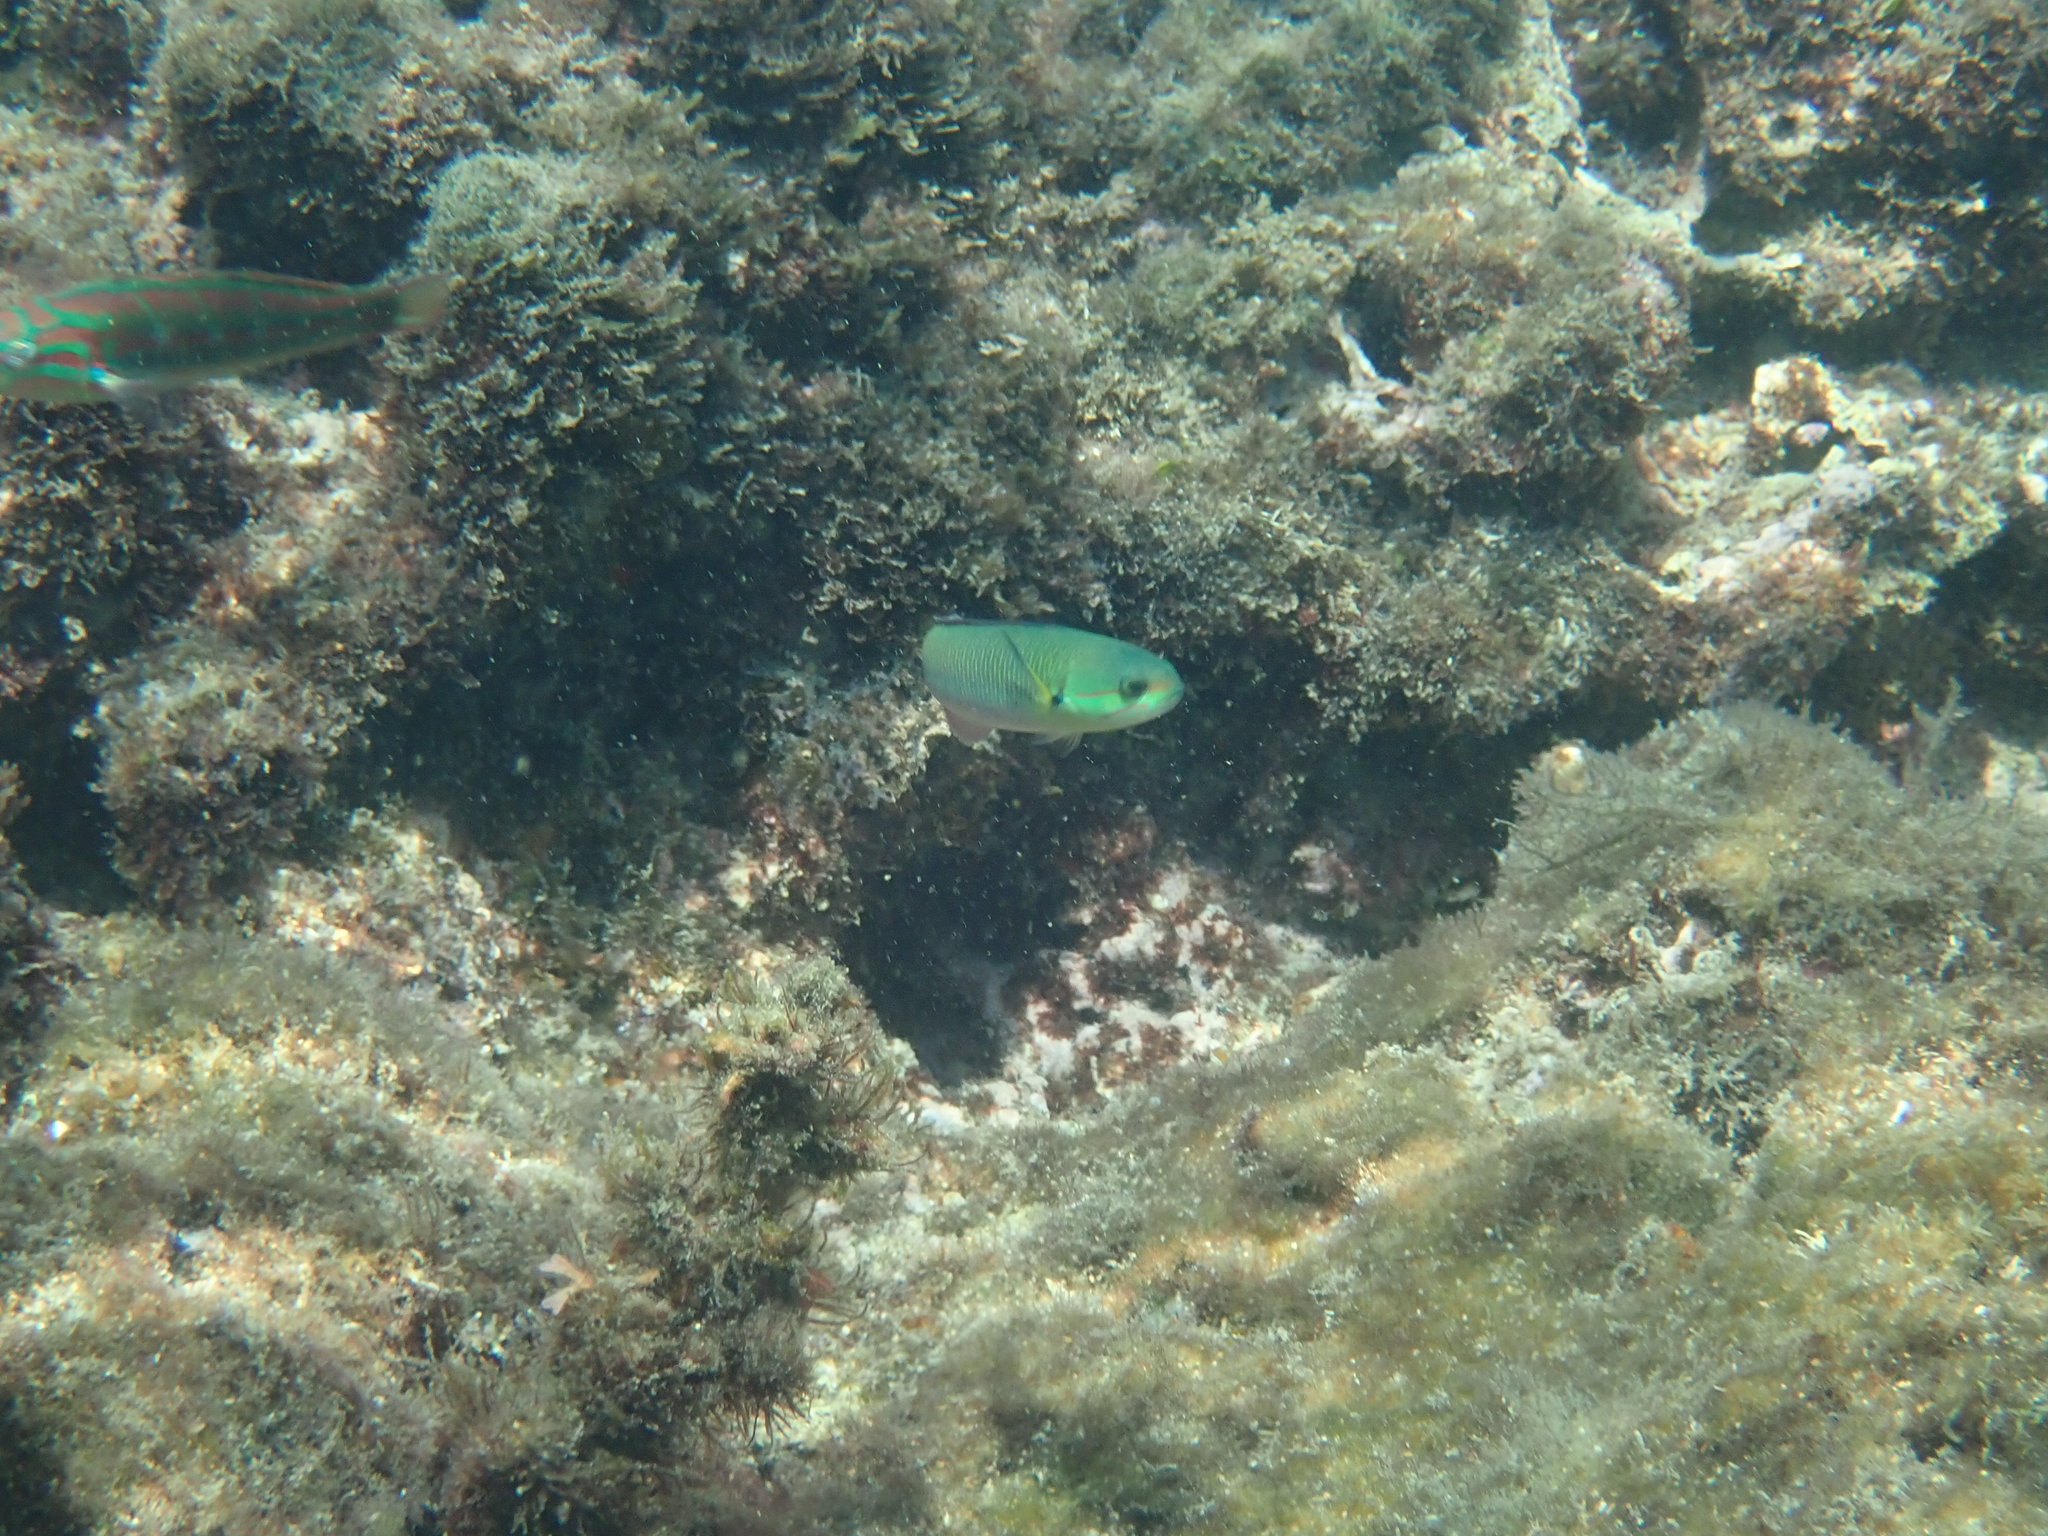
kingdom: Animalia
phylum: Chordata
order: Perciformes
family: Labridae
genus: Thalassoma
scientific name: Thalassoma amblycephalum
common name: Bluehead wrasse
